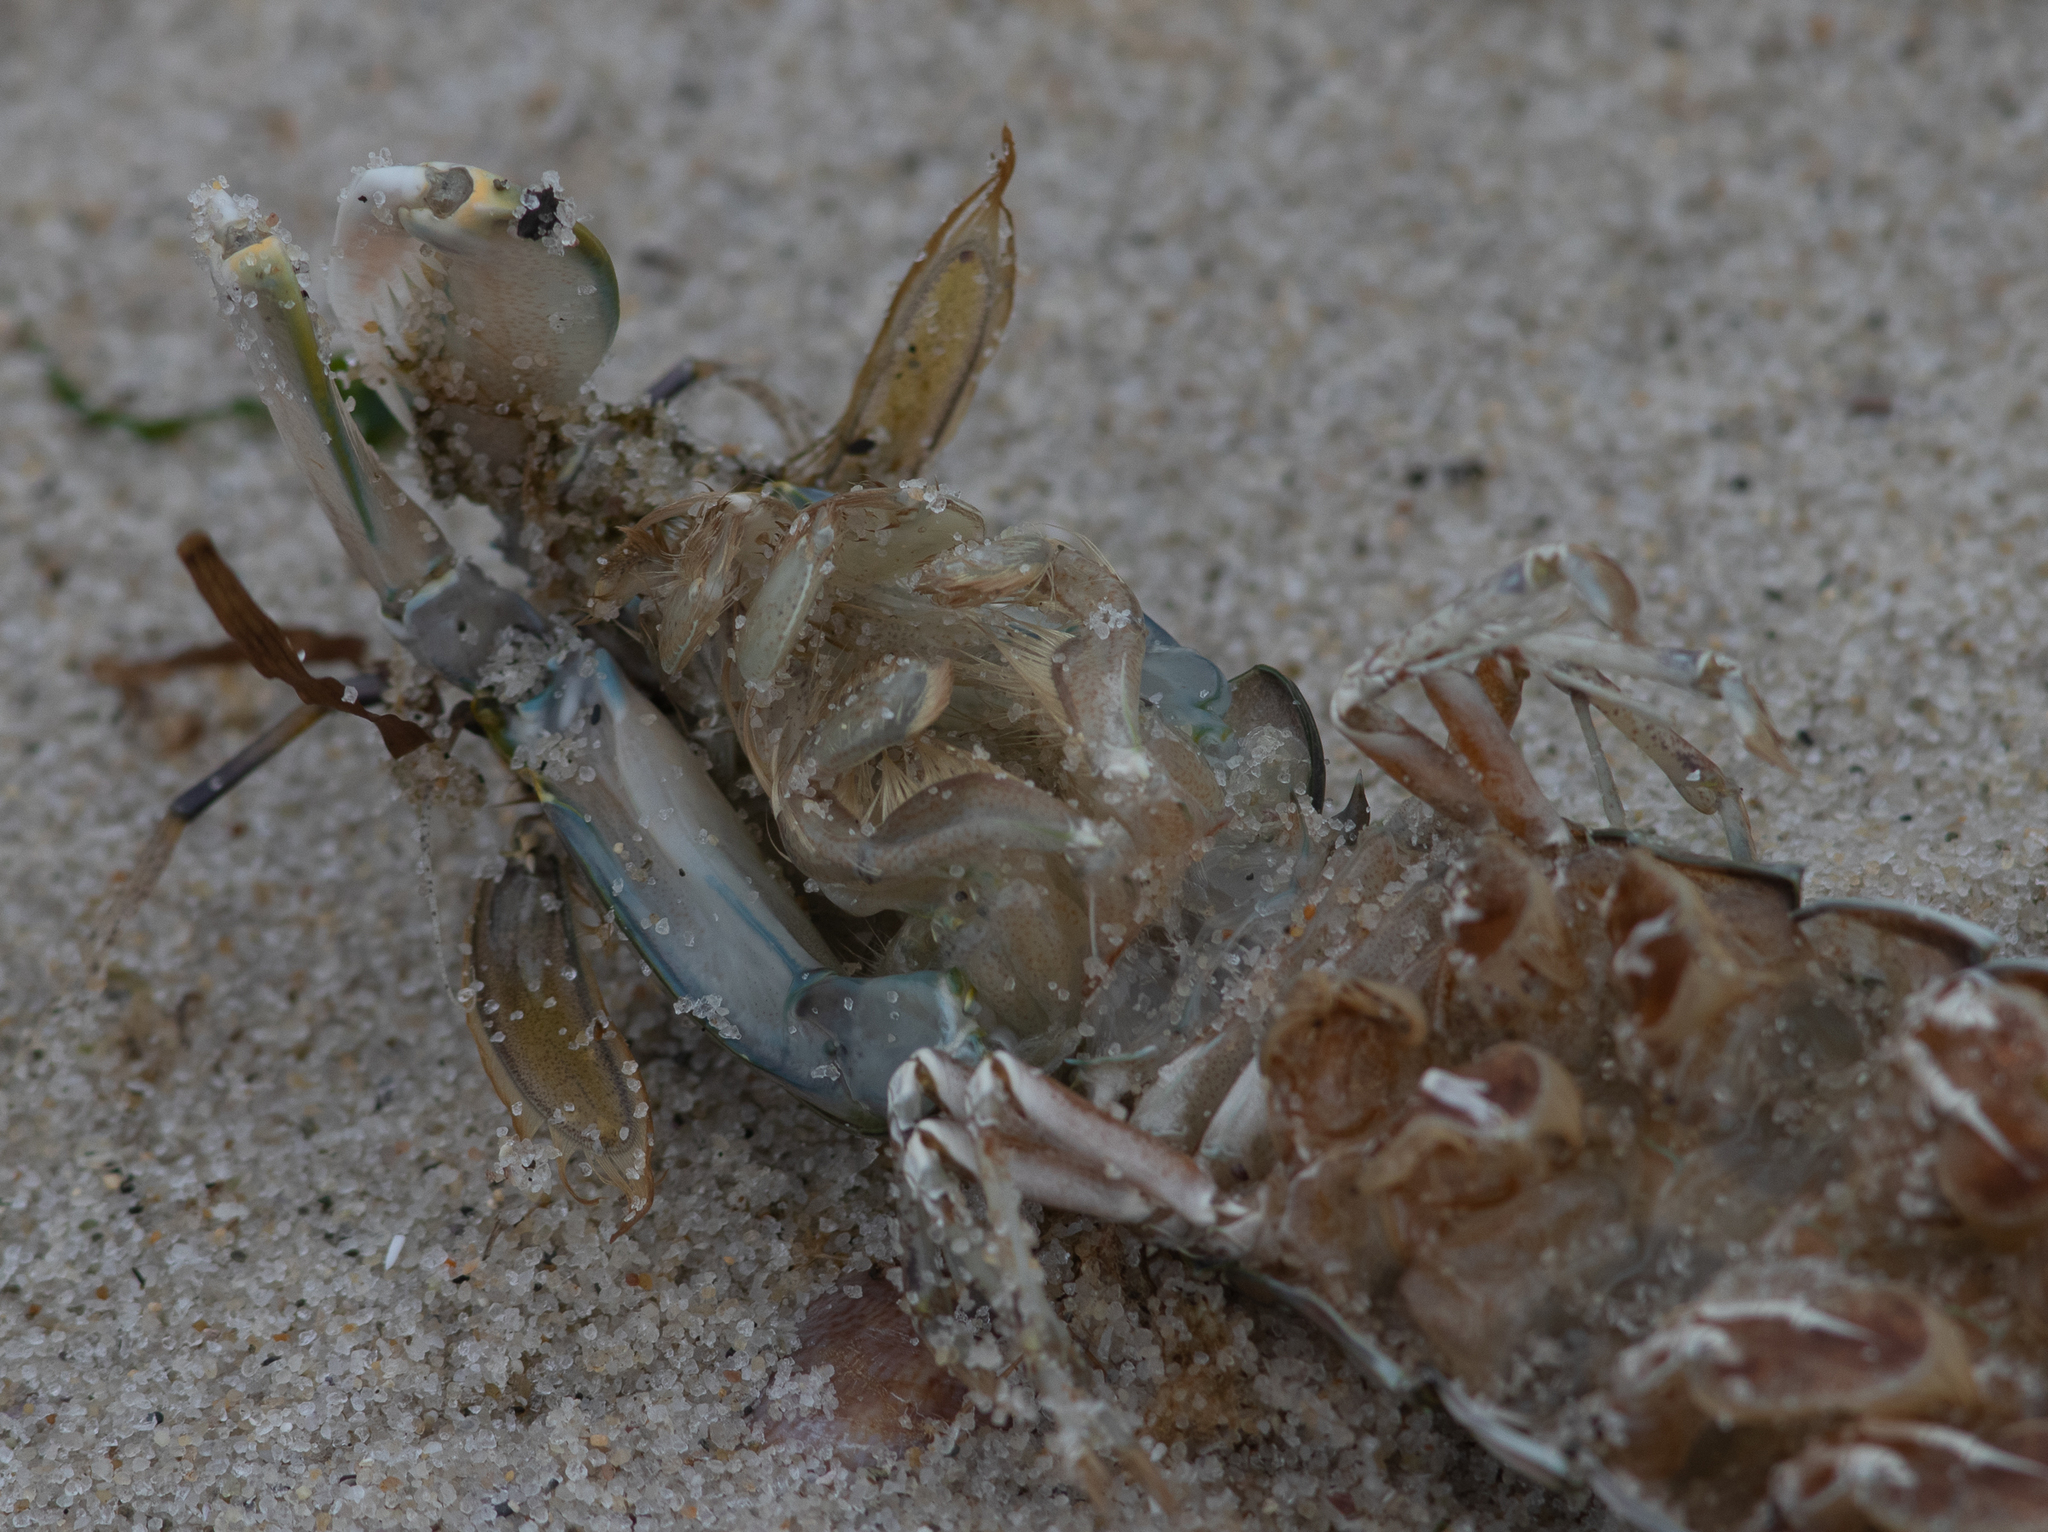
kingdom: Animalia
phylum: Arthropoda
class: Malacostraca
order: Stomatopoda
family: Squillidae
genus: Squilla
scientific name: Squilla empusa
